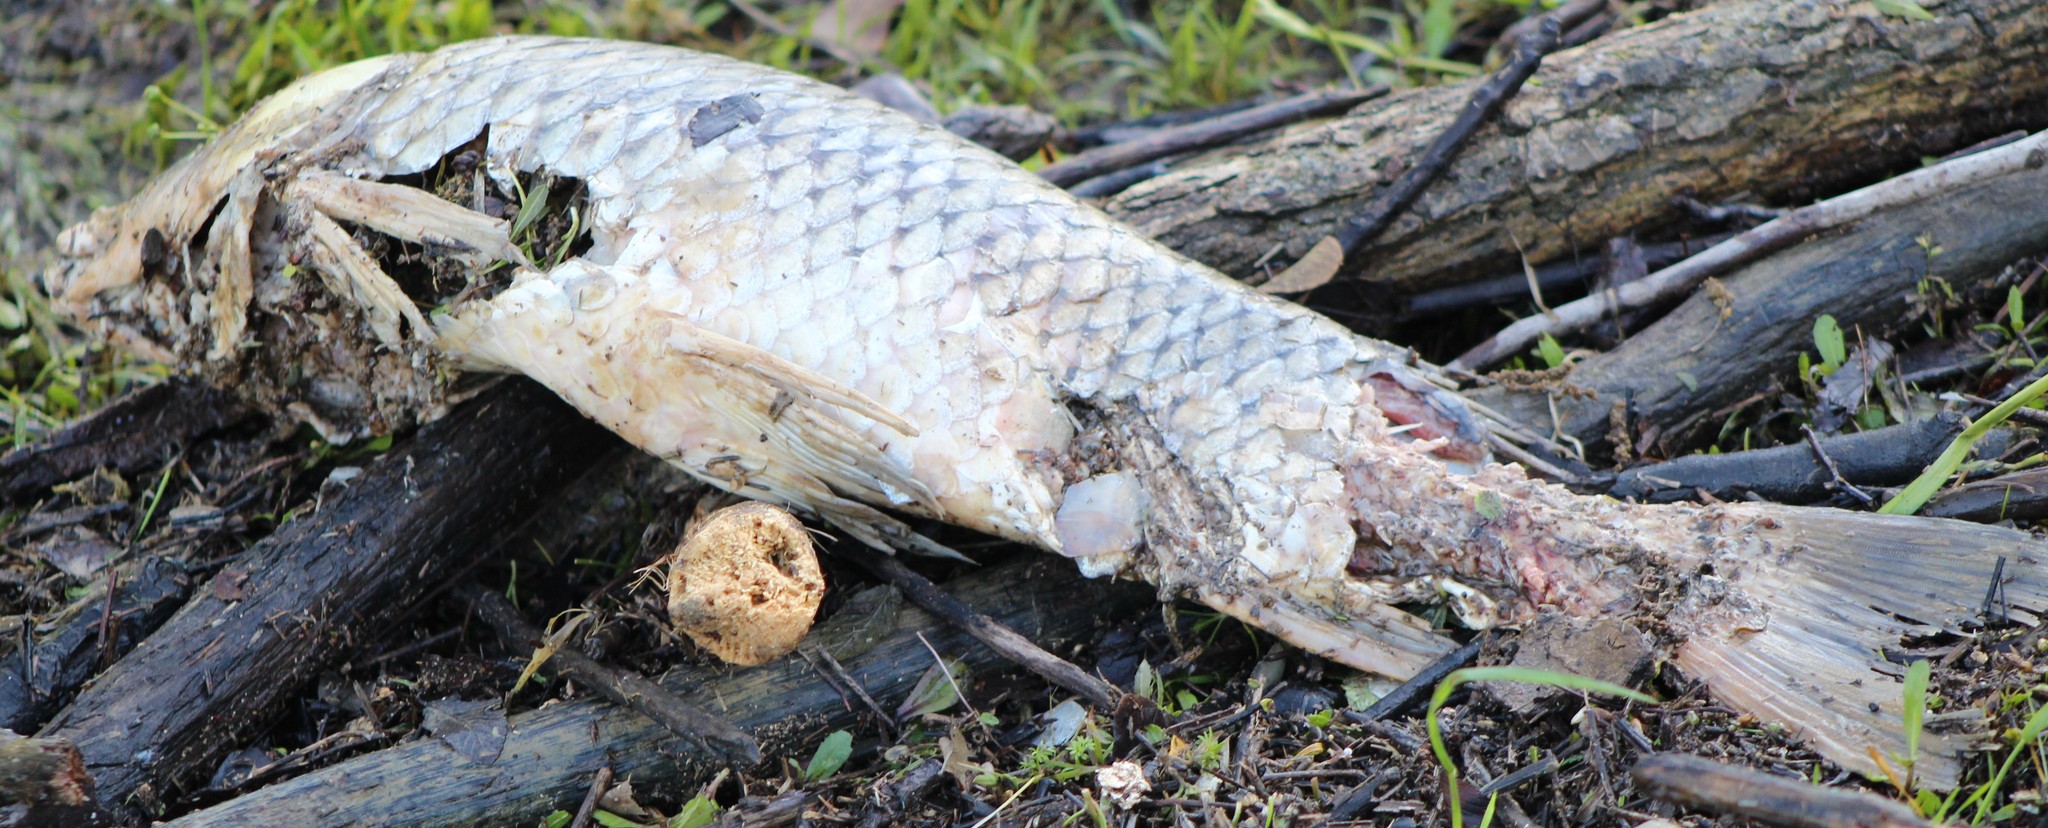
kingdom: Animalia
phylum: Chordata
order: Cypriniformes
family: Cyprinidae
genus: Cyprinus
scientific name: Cyprinus carpio
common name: Common carp
